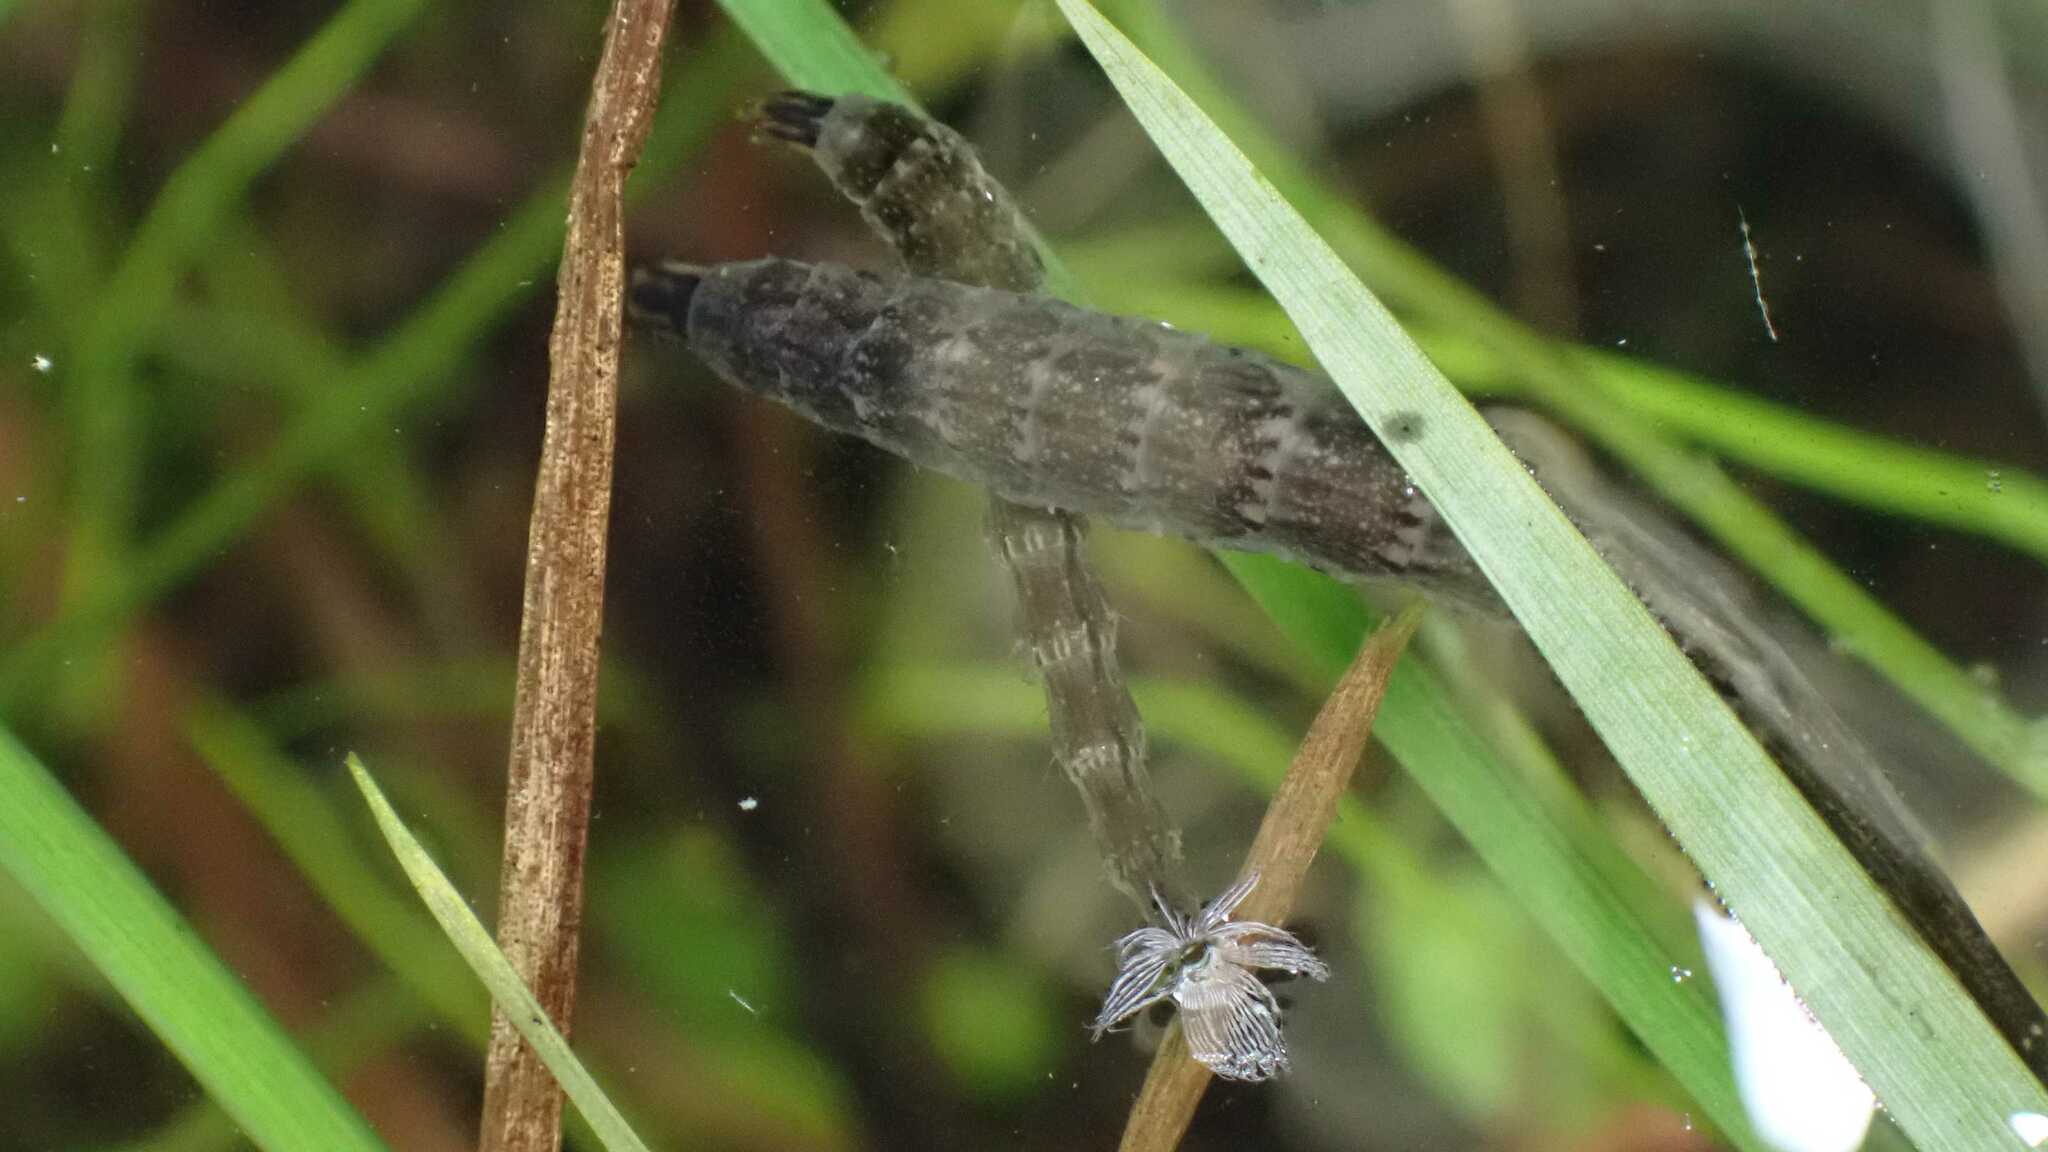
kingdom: Animalia
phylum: Arthropoda
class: Insecta
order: Diptera
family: Stratiomyidae
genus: Stratiomys
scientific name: Stratiomys
